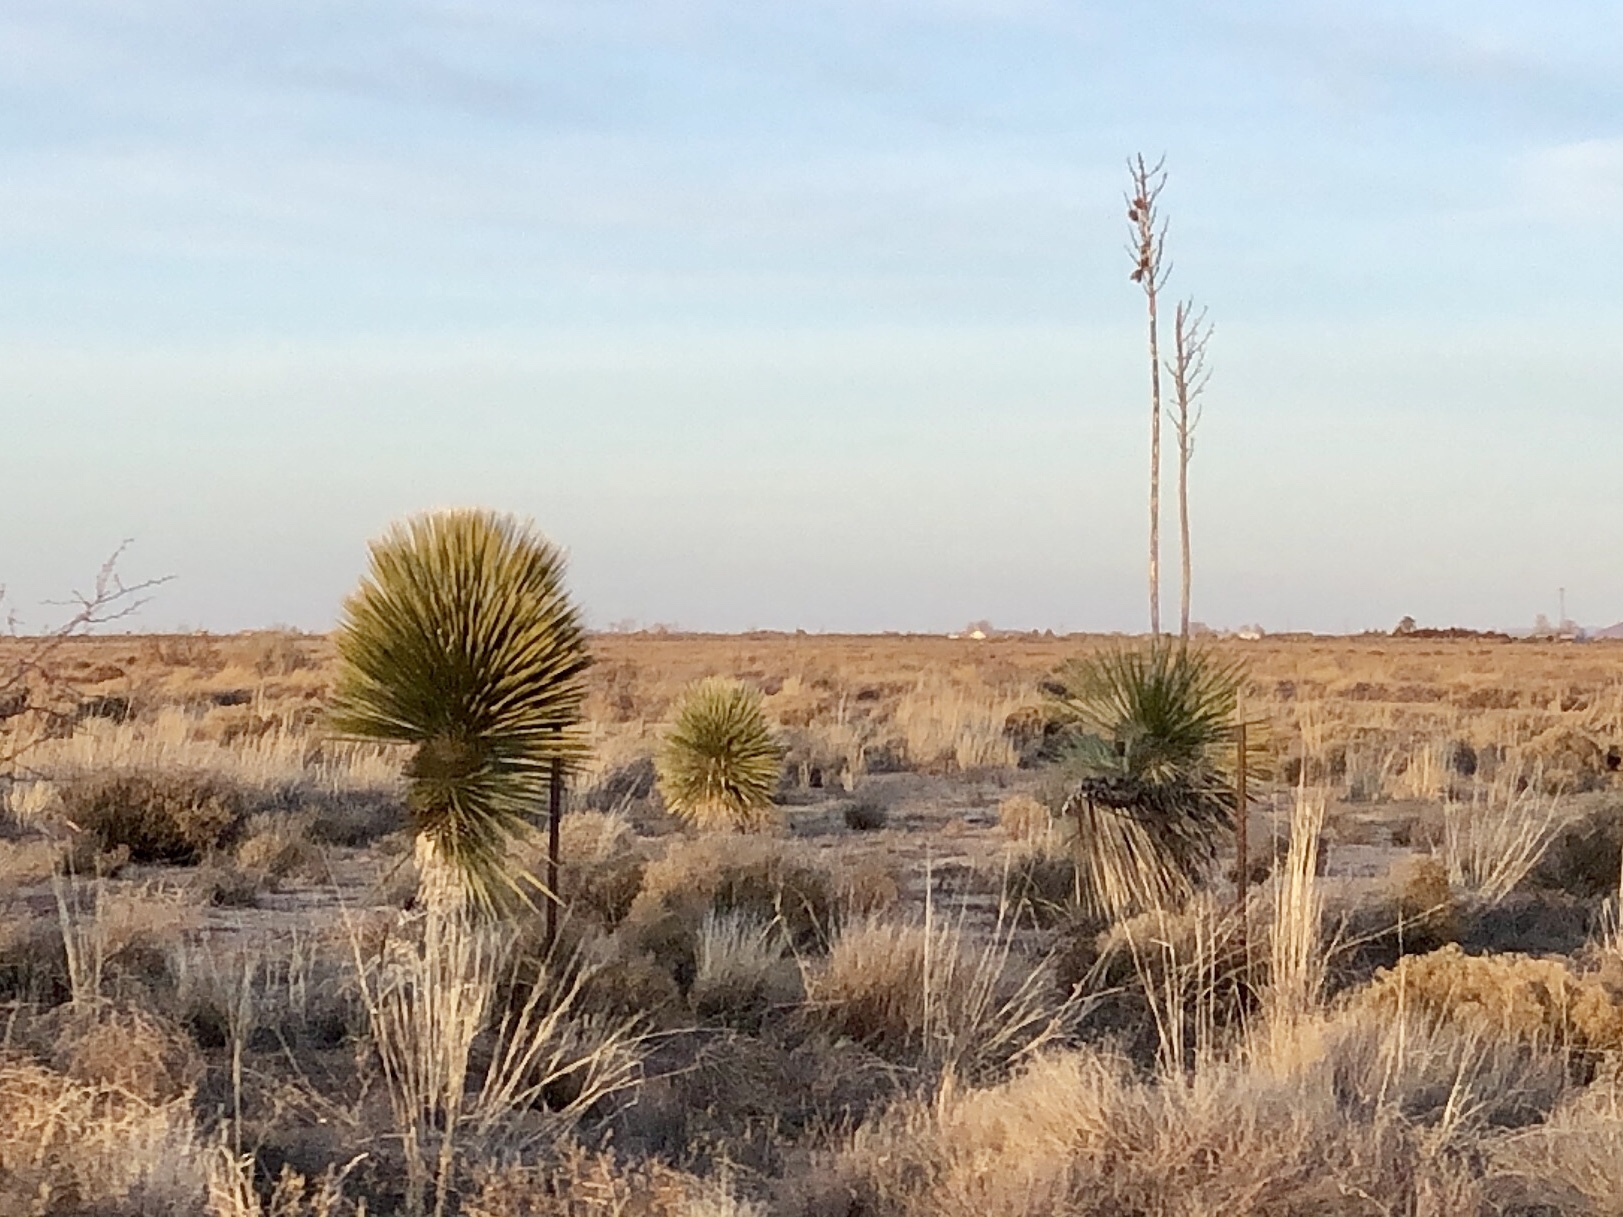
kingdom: Plantae
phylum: Tracheophyta
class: Liliopsida
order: Asparagales
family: Asparagaceae
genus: Yucca
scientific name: Yucca elata
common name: Palmella
